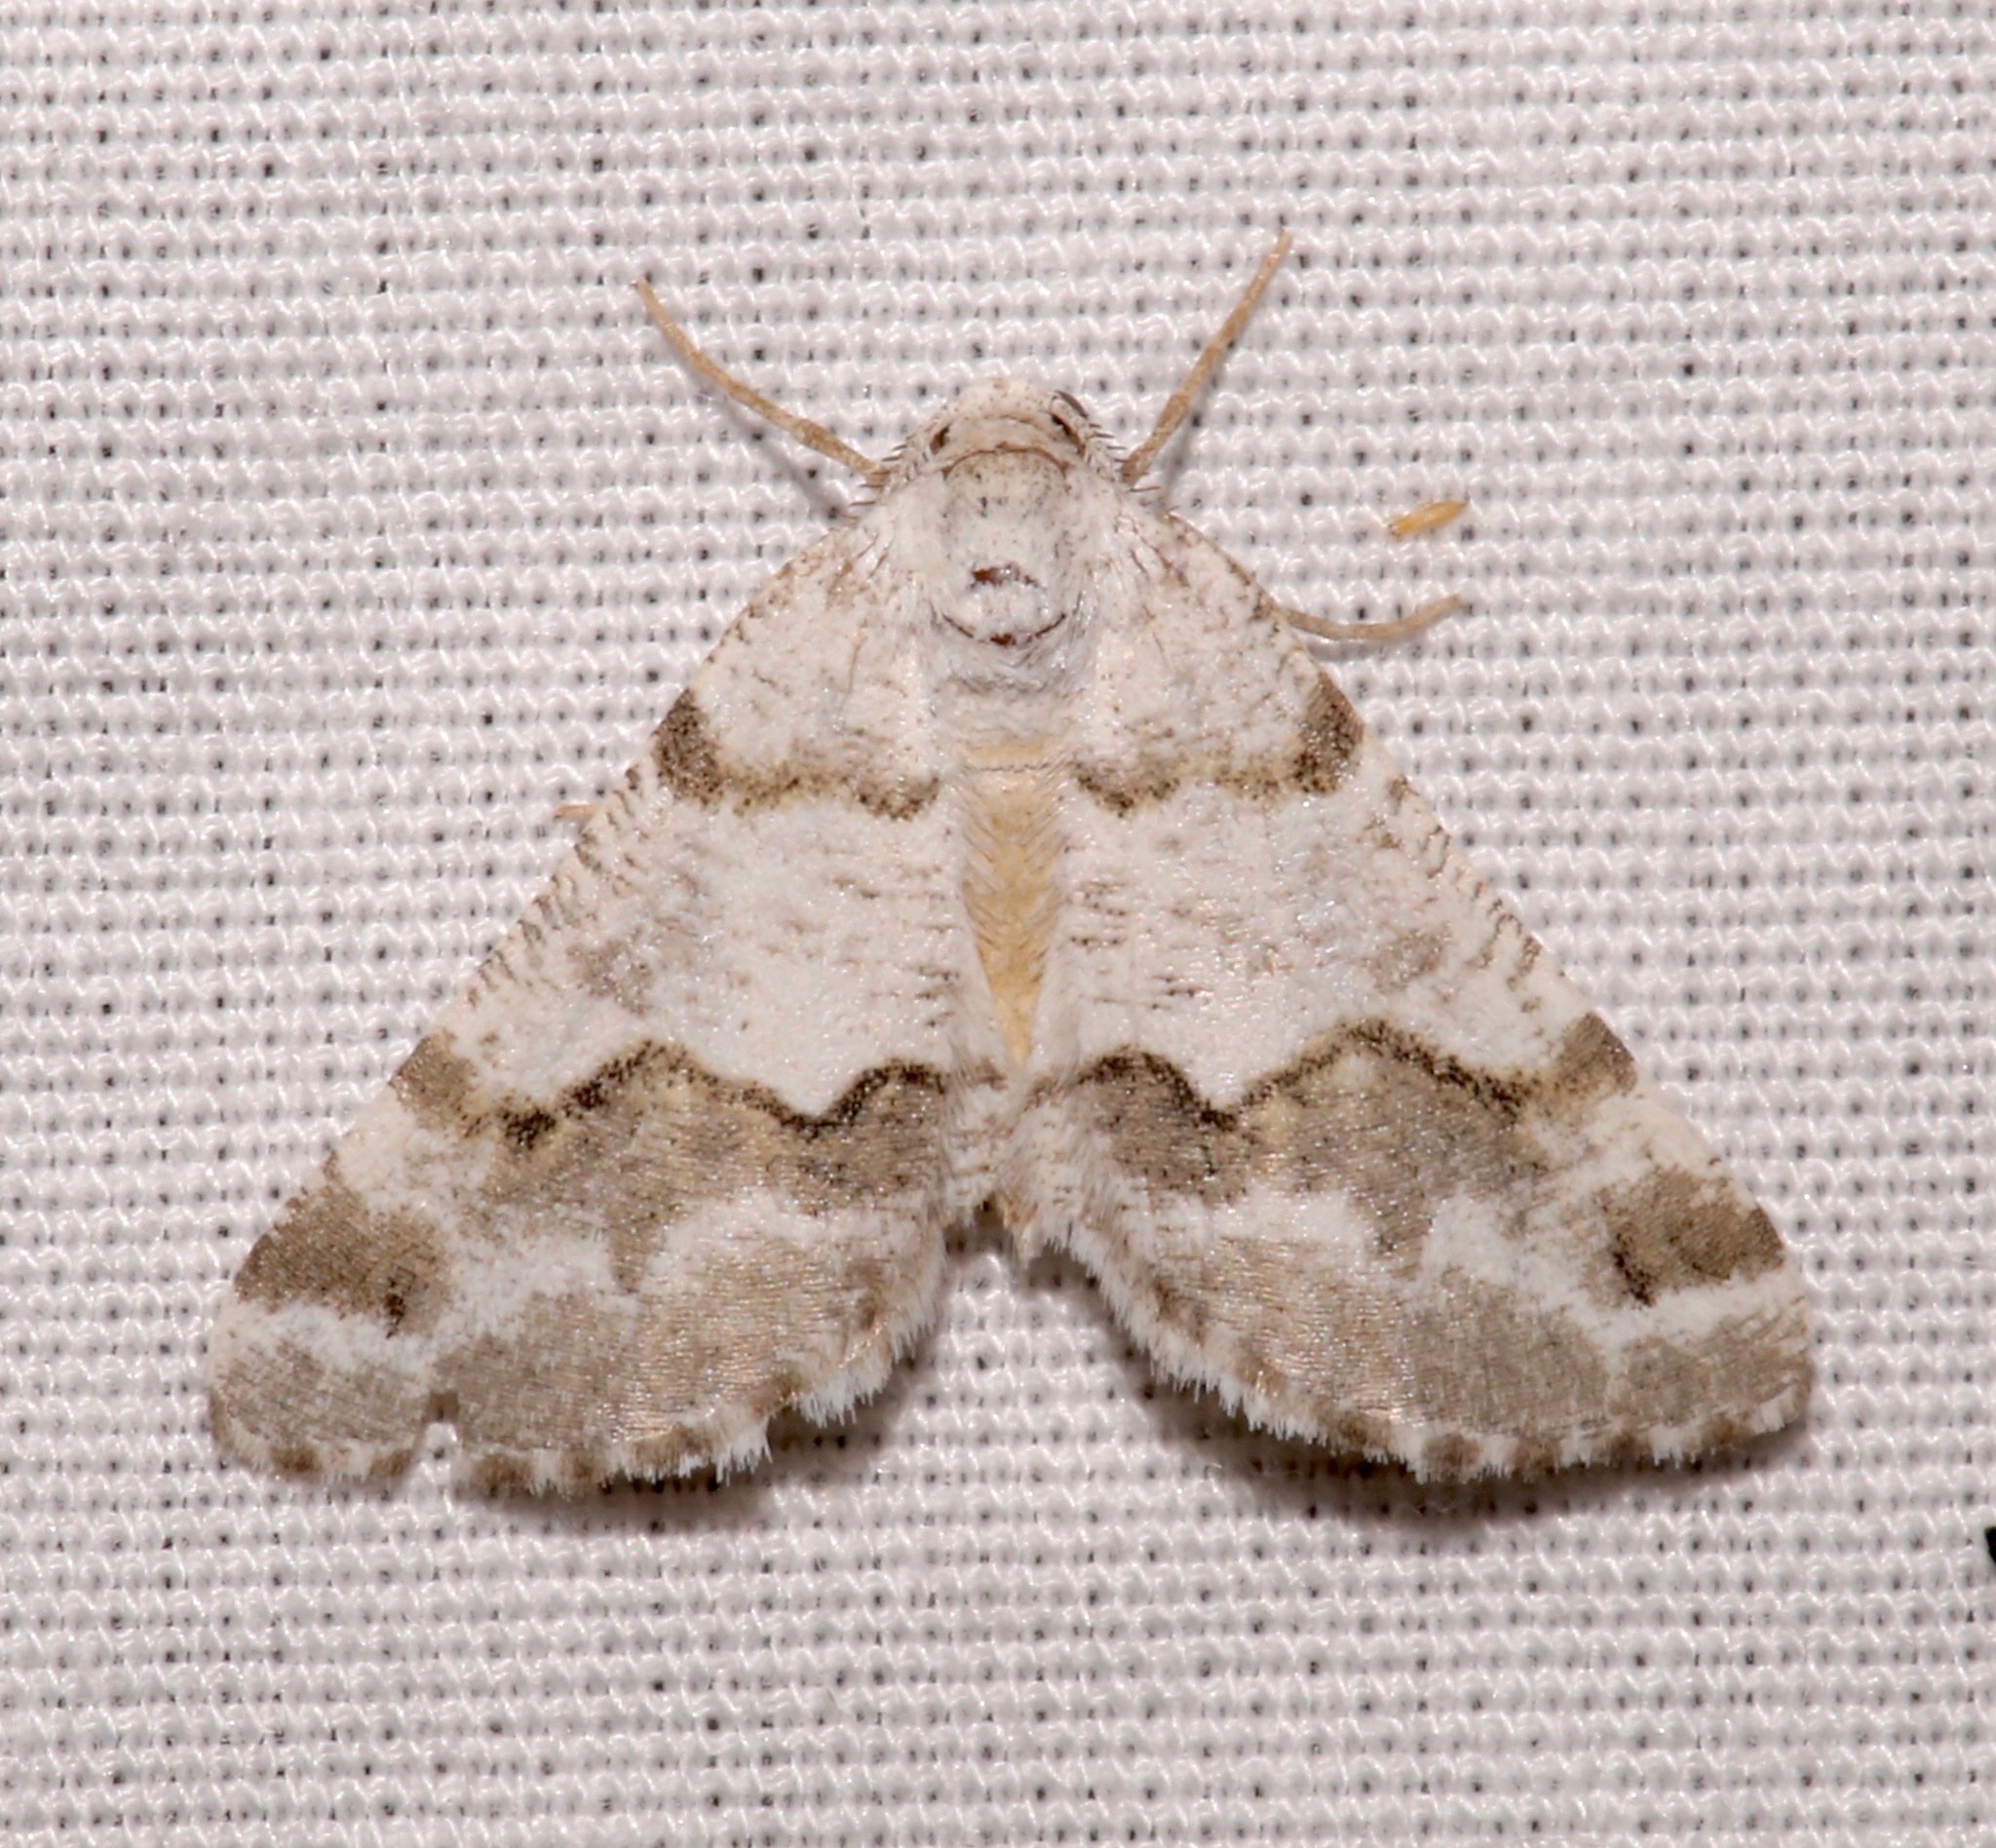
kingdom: Animalia
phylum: Arthropoda
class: Insecta
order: Lepidoptera
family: Geometridae
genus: Macaria
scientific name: Macaria pallipennata
